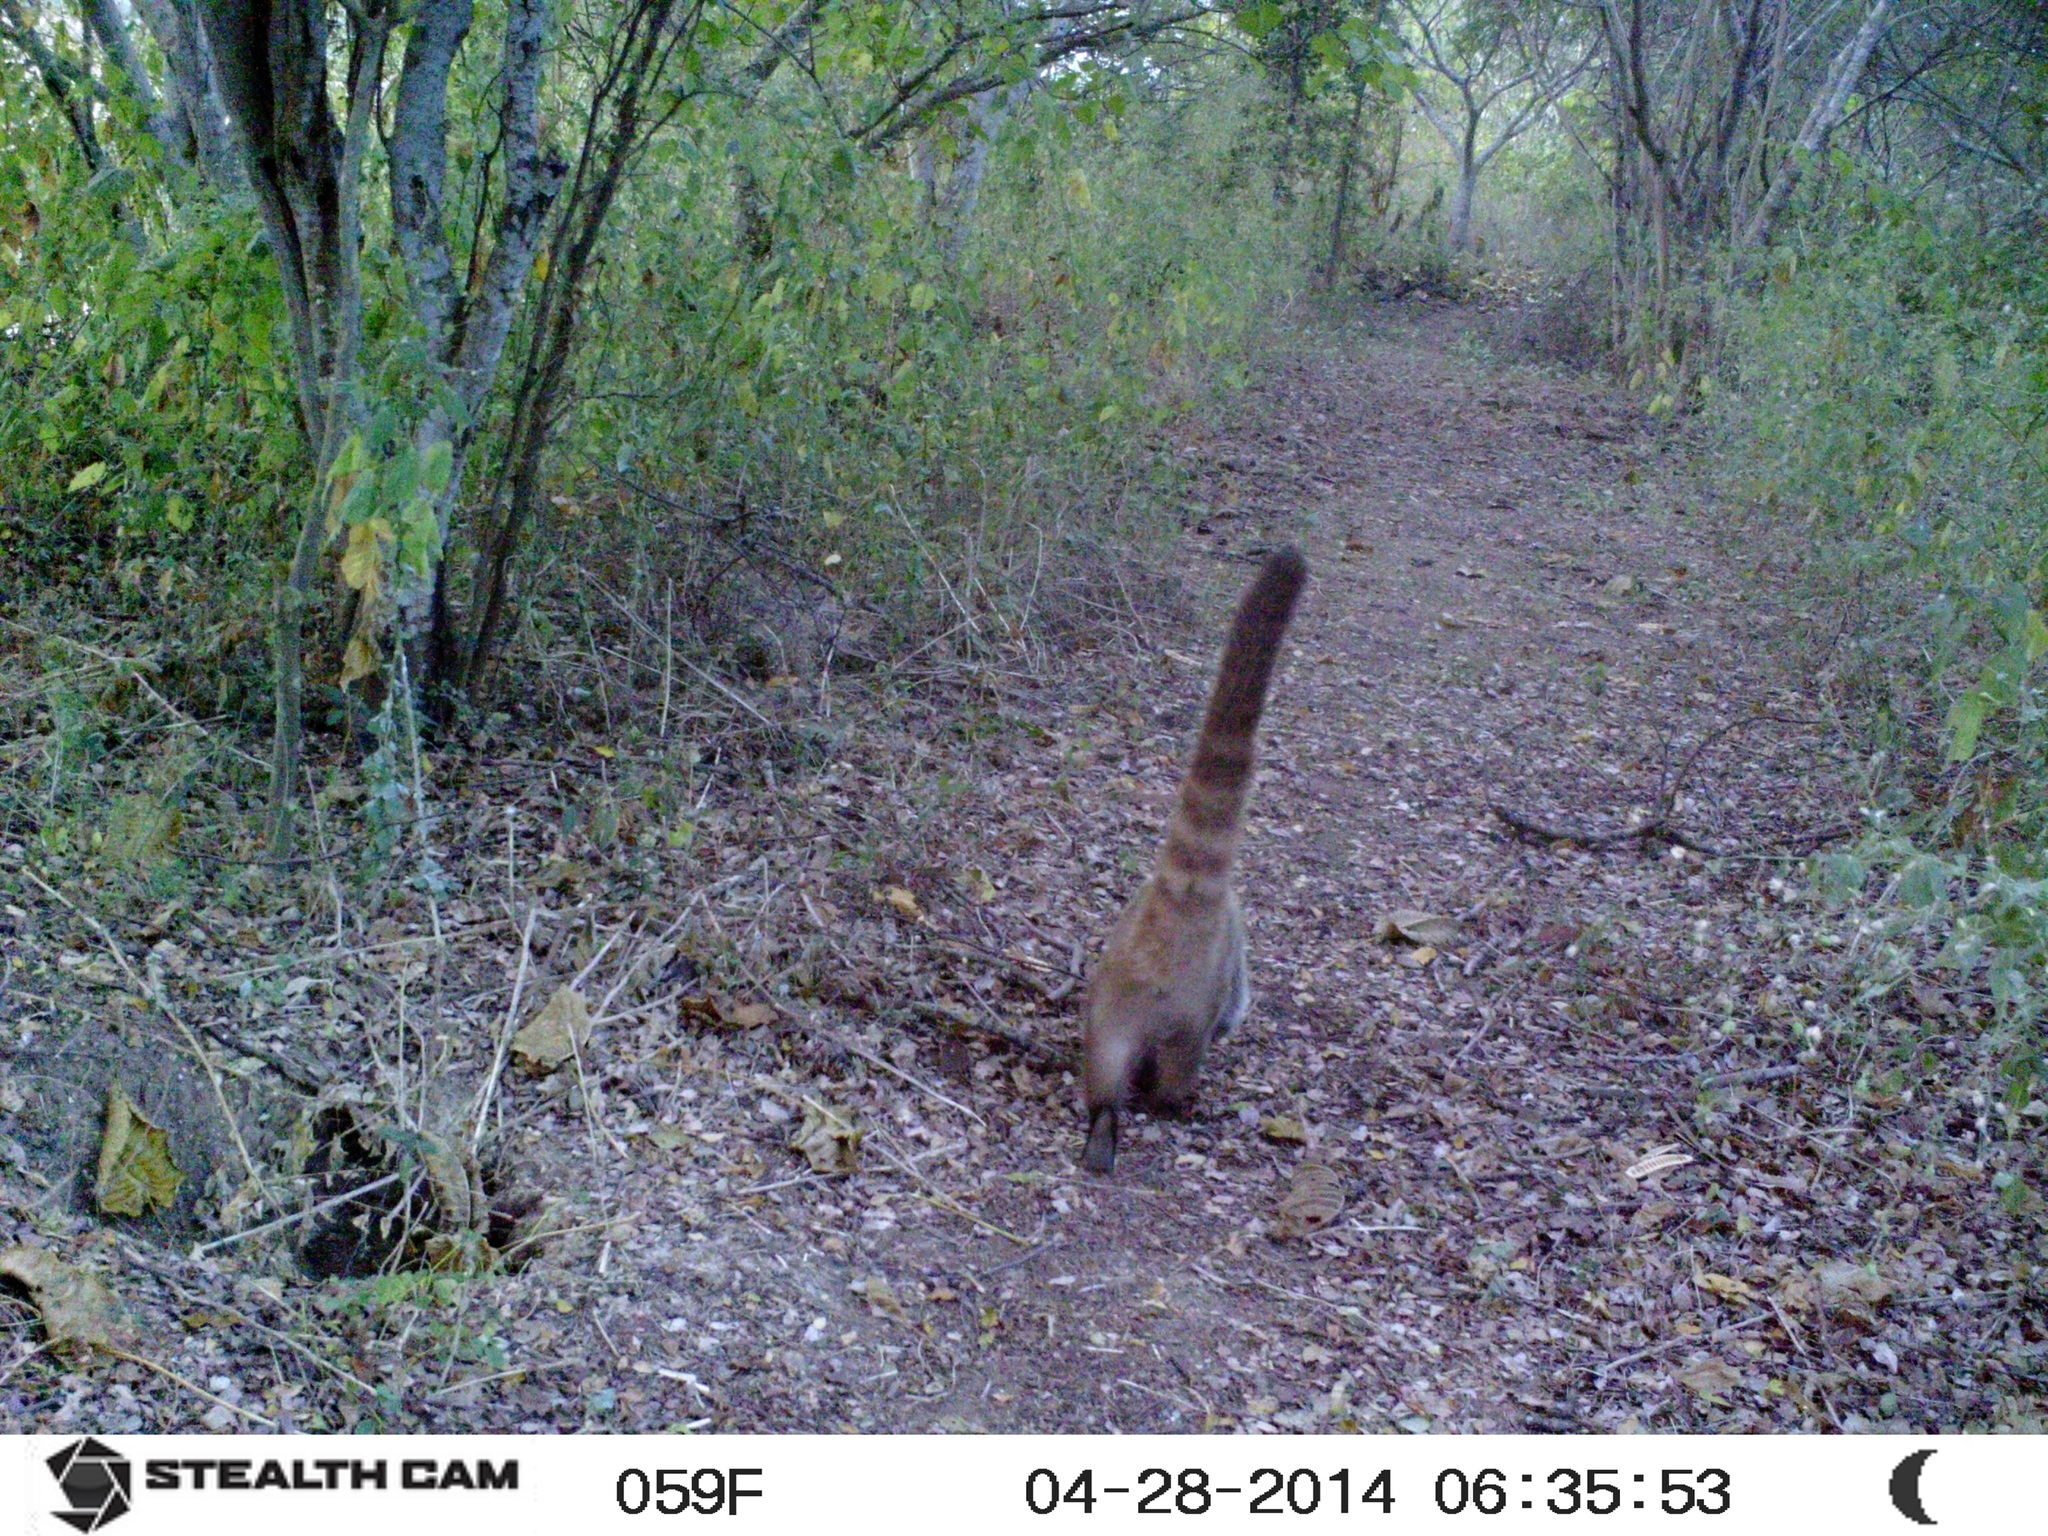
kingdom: Animalia
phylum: Chordata
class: Mammalia
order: Carnivora
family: Procyonidae
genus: Nasua
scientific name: Nasua narica
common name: White-nosed coati
